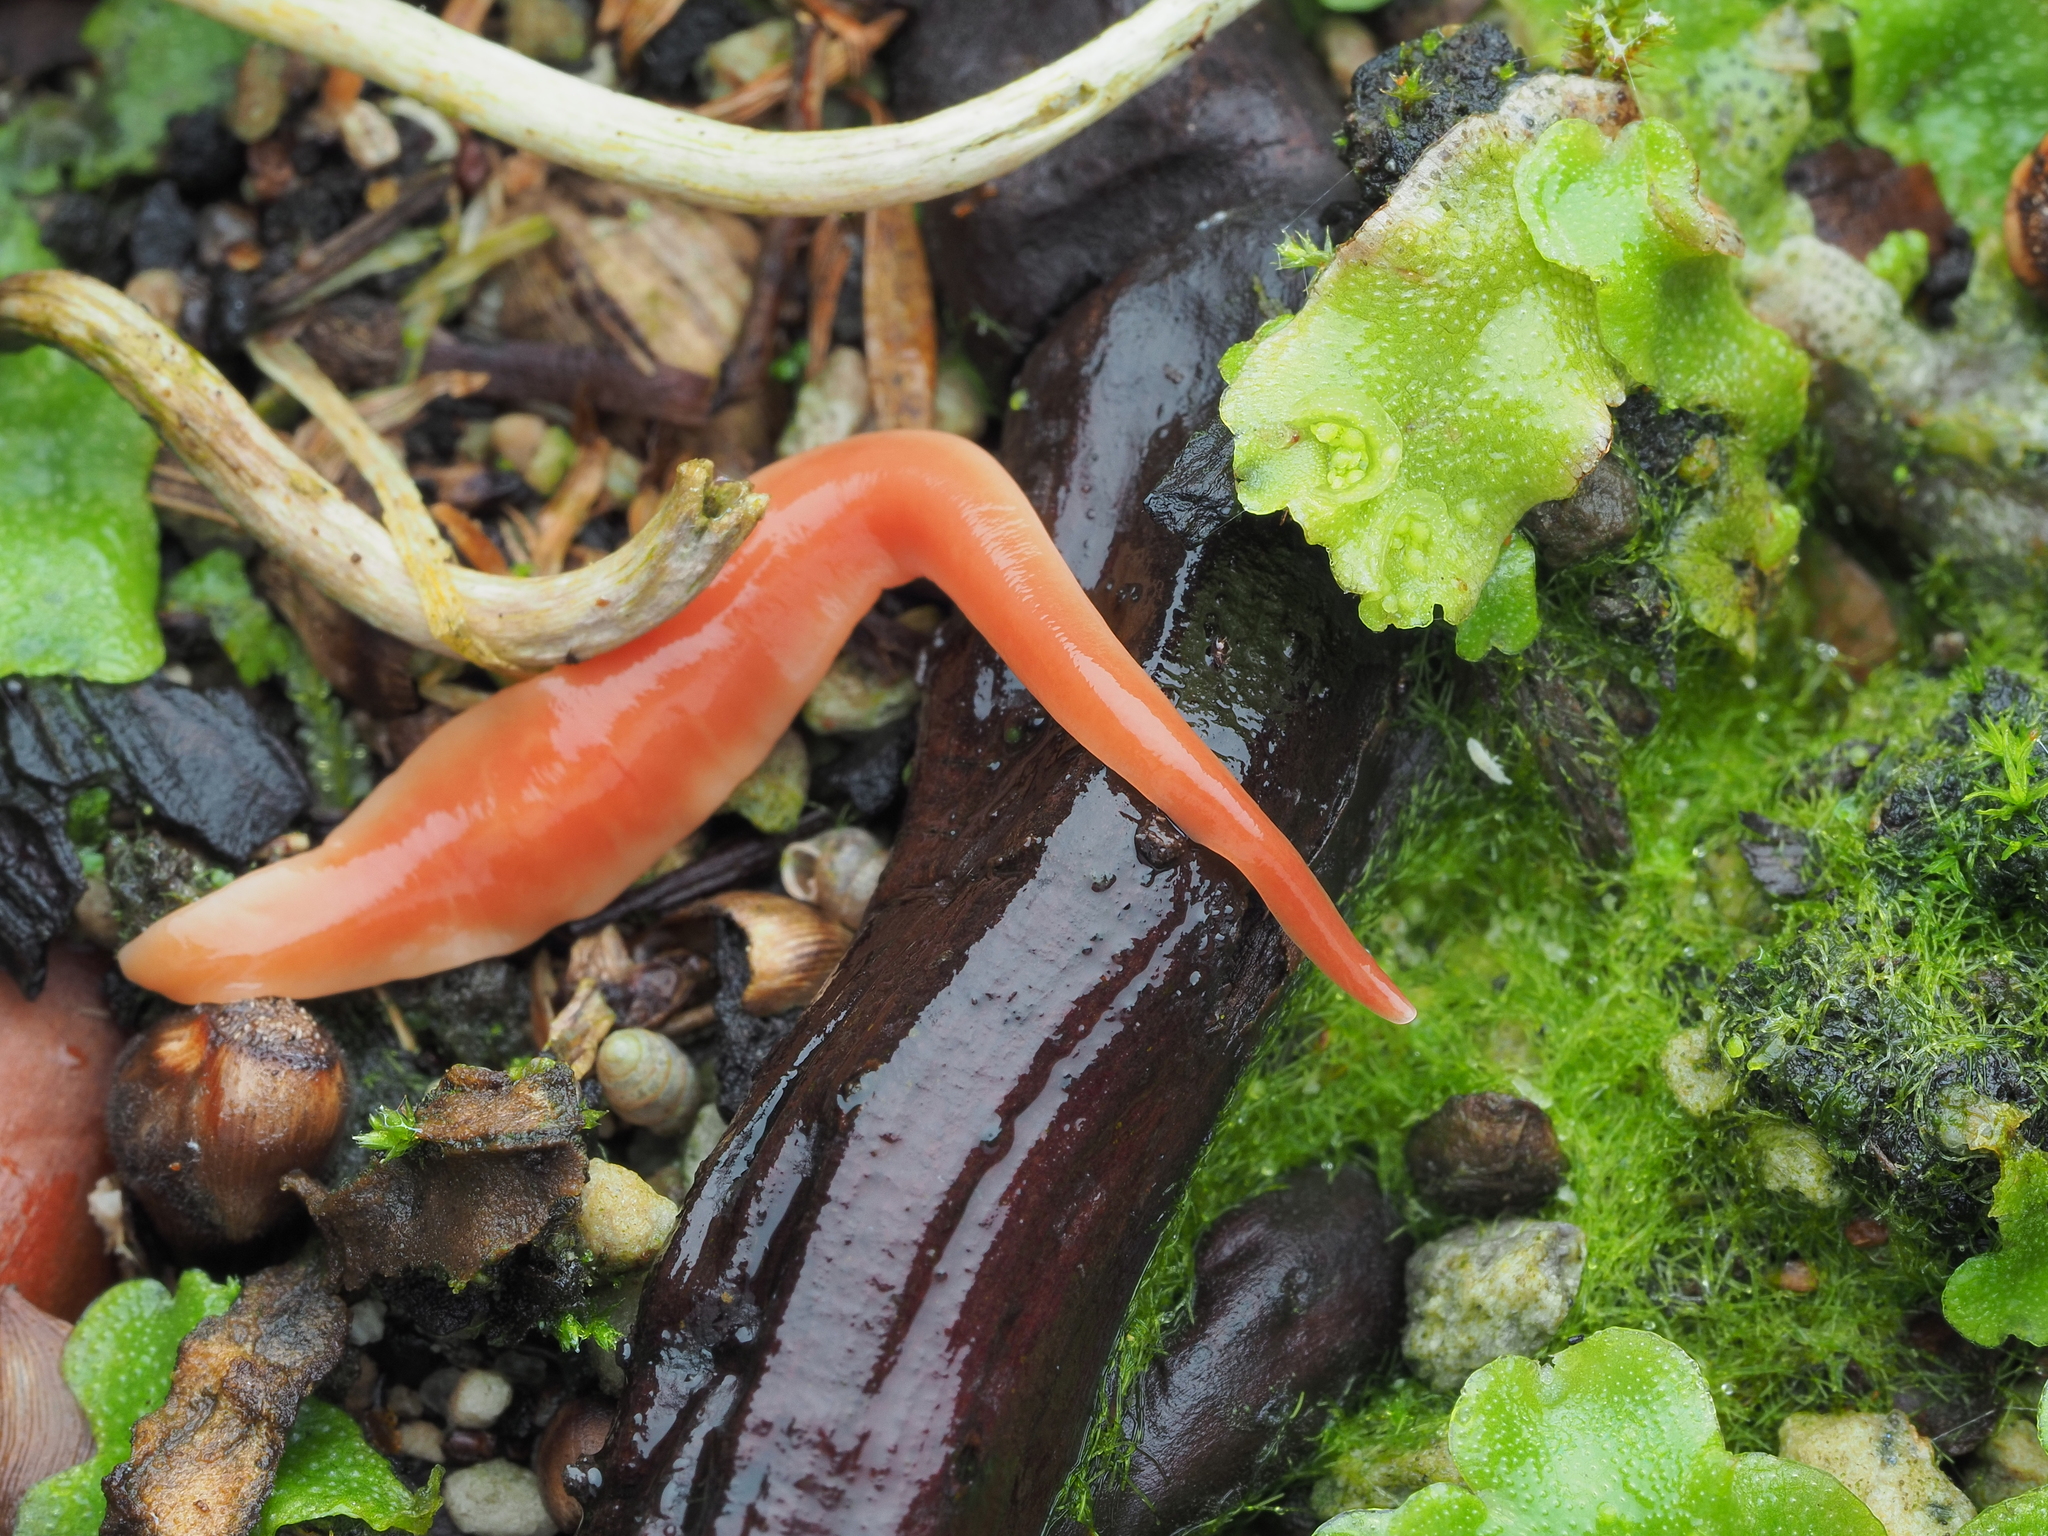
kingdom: Animalia
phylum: Platyhelminthes
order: Tricladida
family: Geoplanidae
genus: Australoplana
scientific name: Australoplana sanguinea
